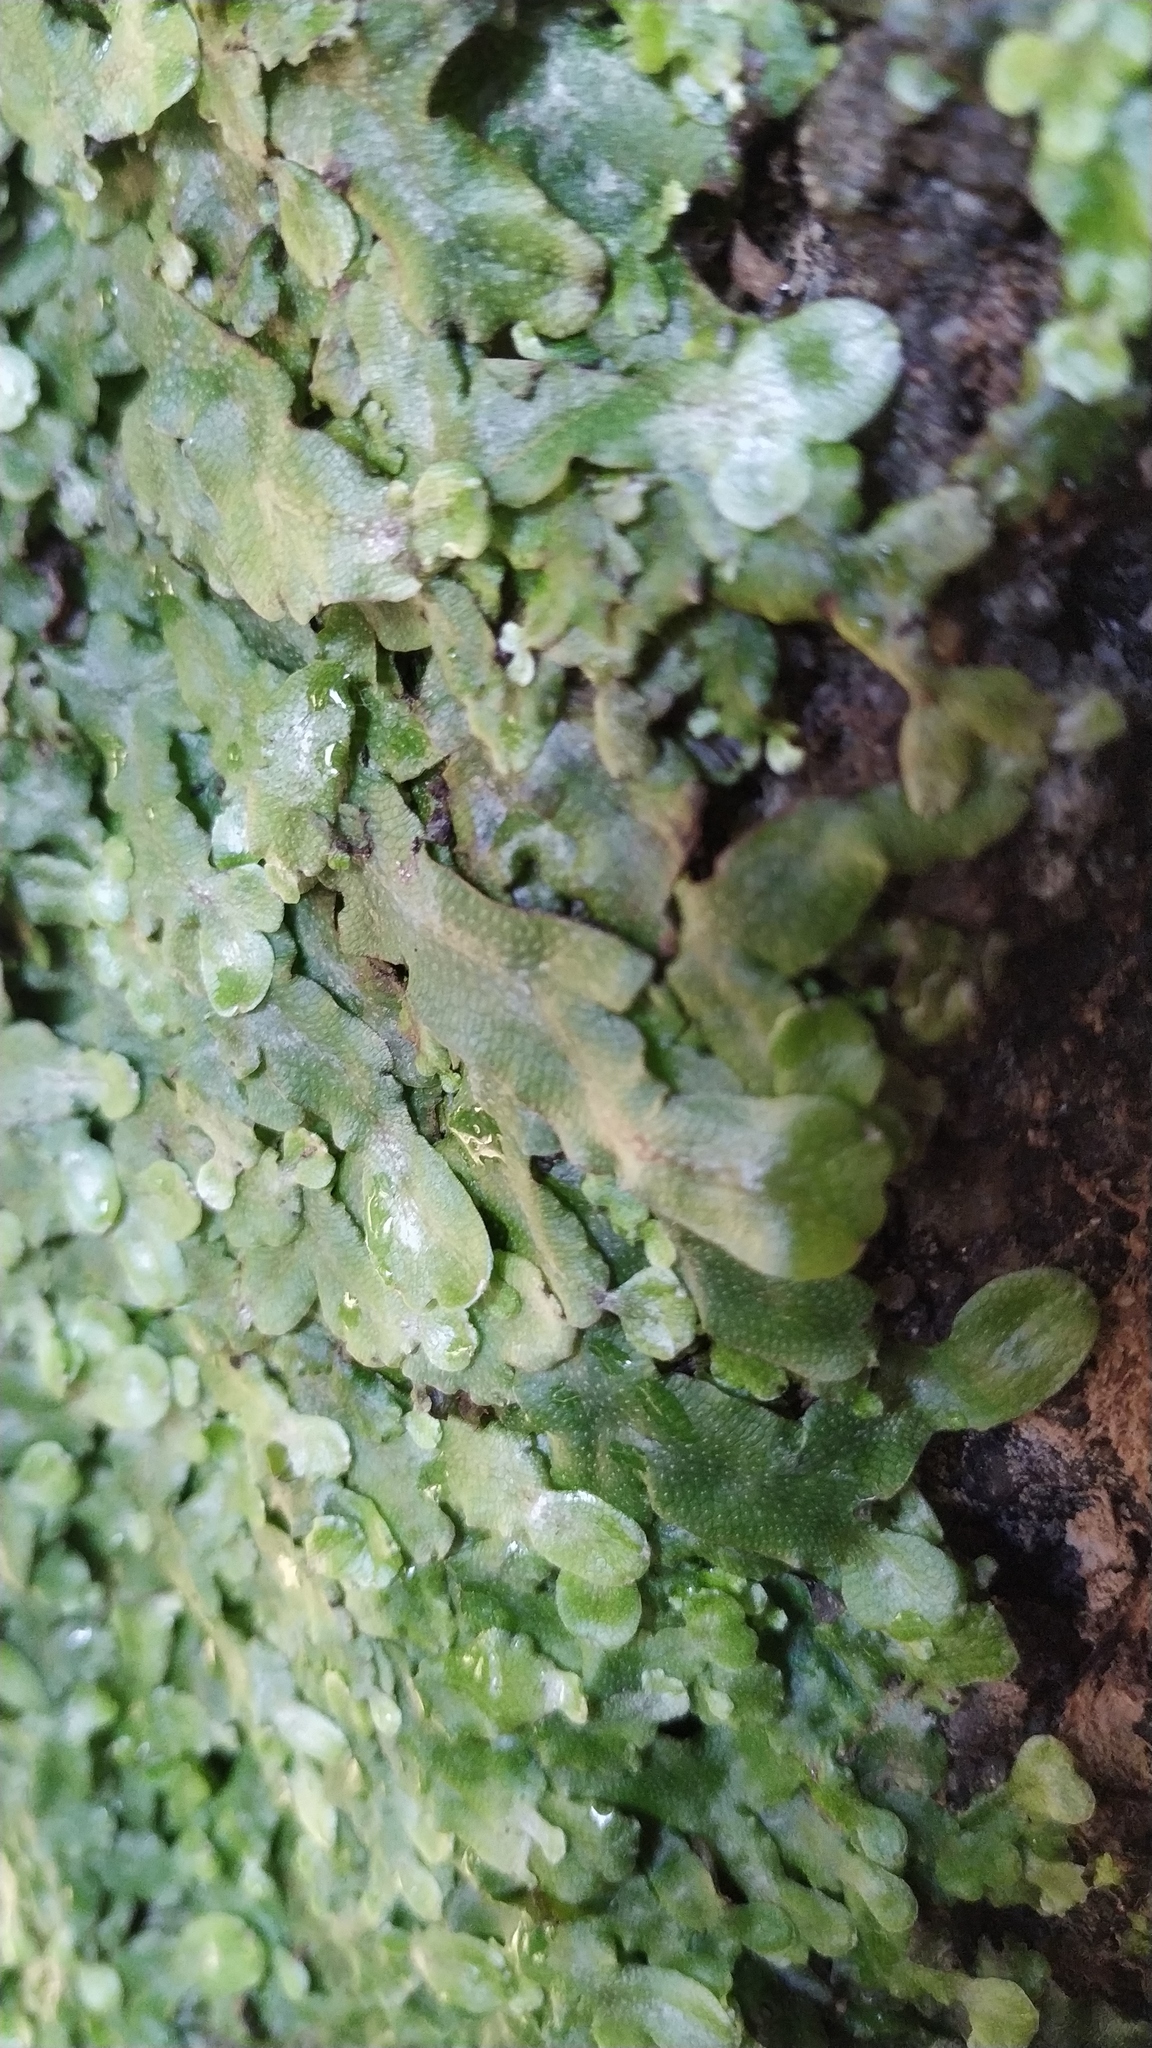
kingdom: Plantae
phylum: Marchantiophyta
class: Marchantiopsida
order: Marchantiales
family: Conocephalaceae
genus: Conocephalum
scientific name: Conocephalum conicum
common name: Great scented liverwort
